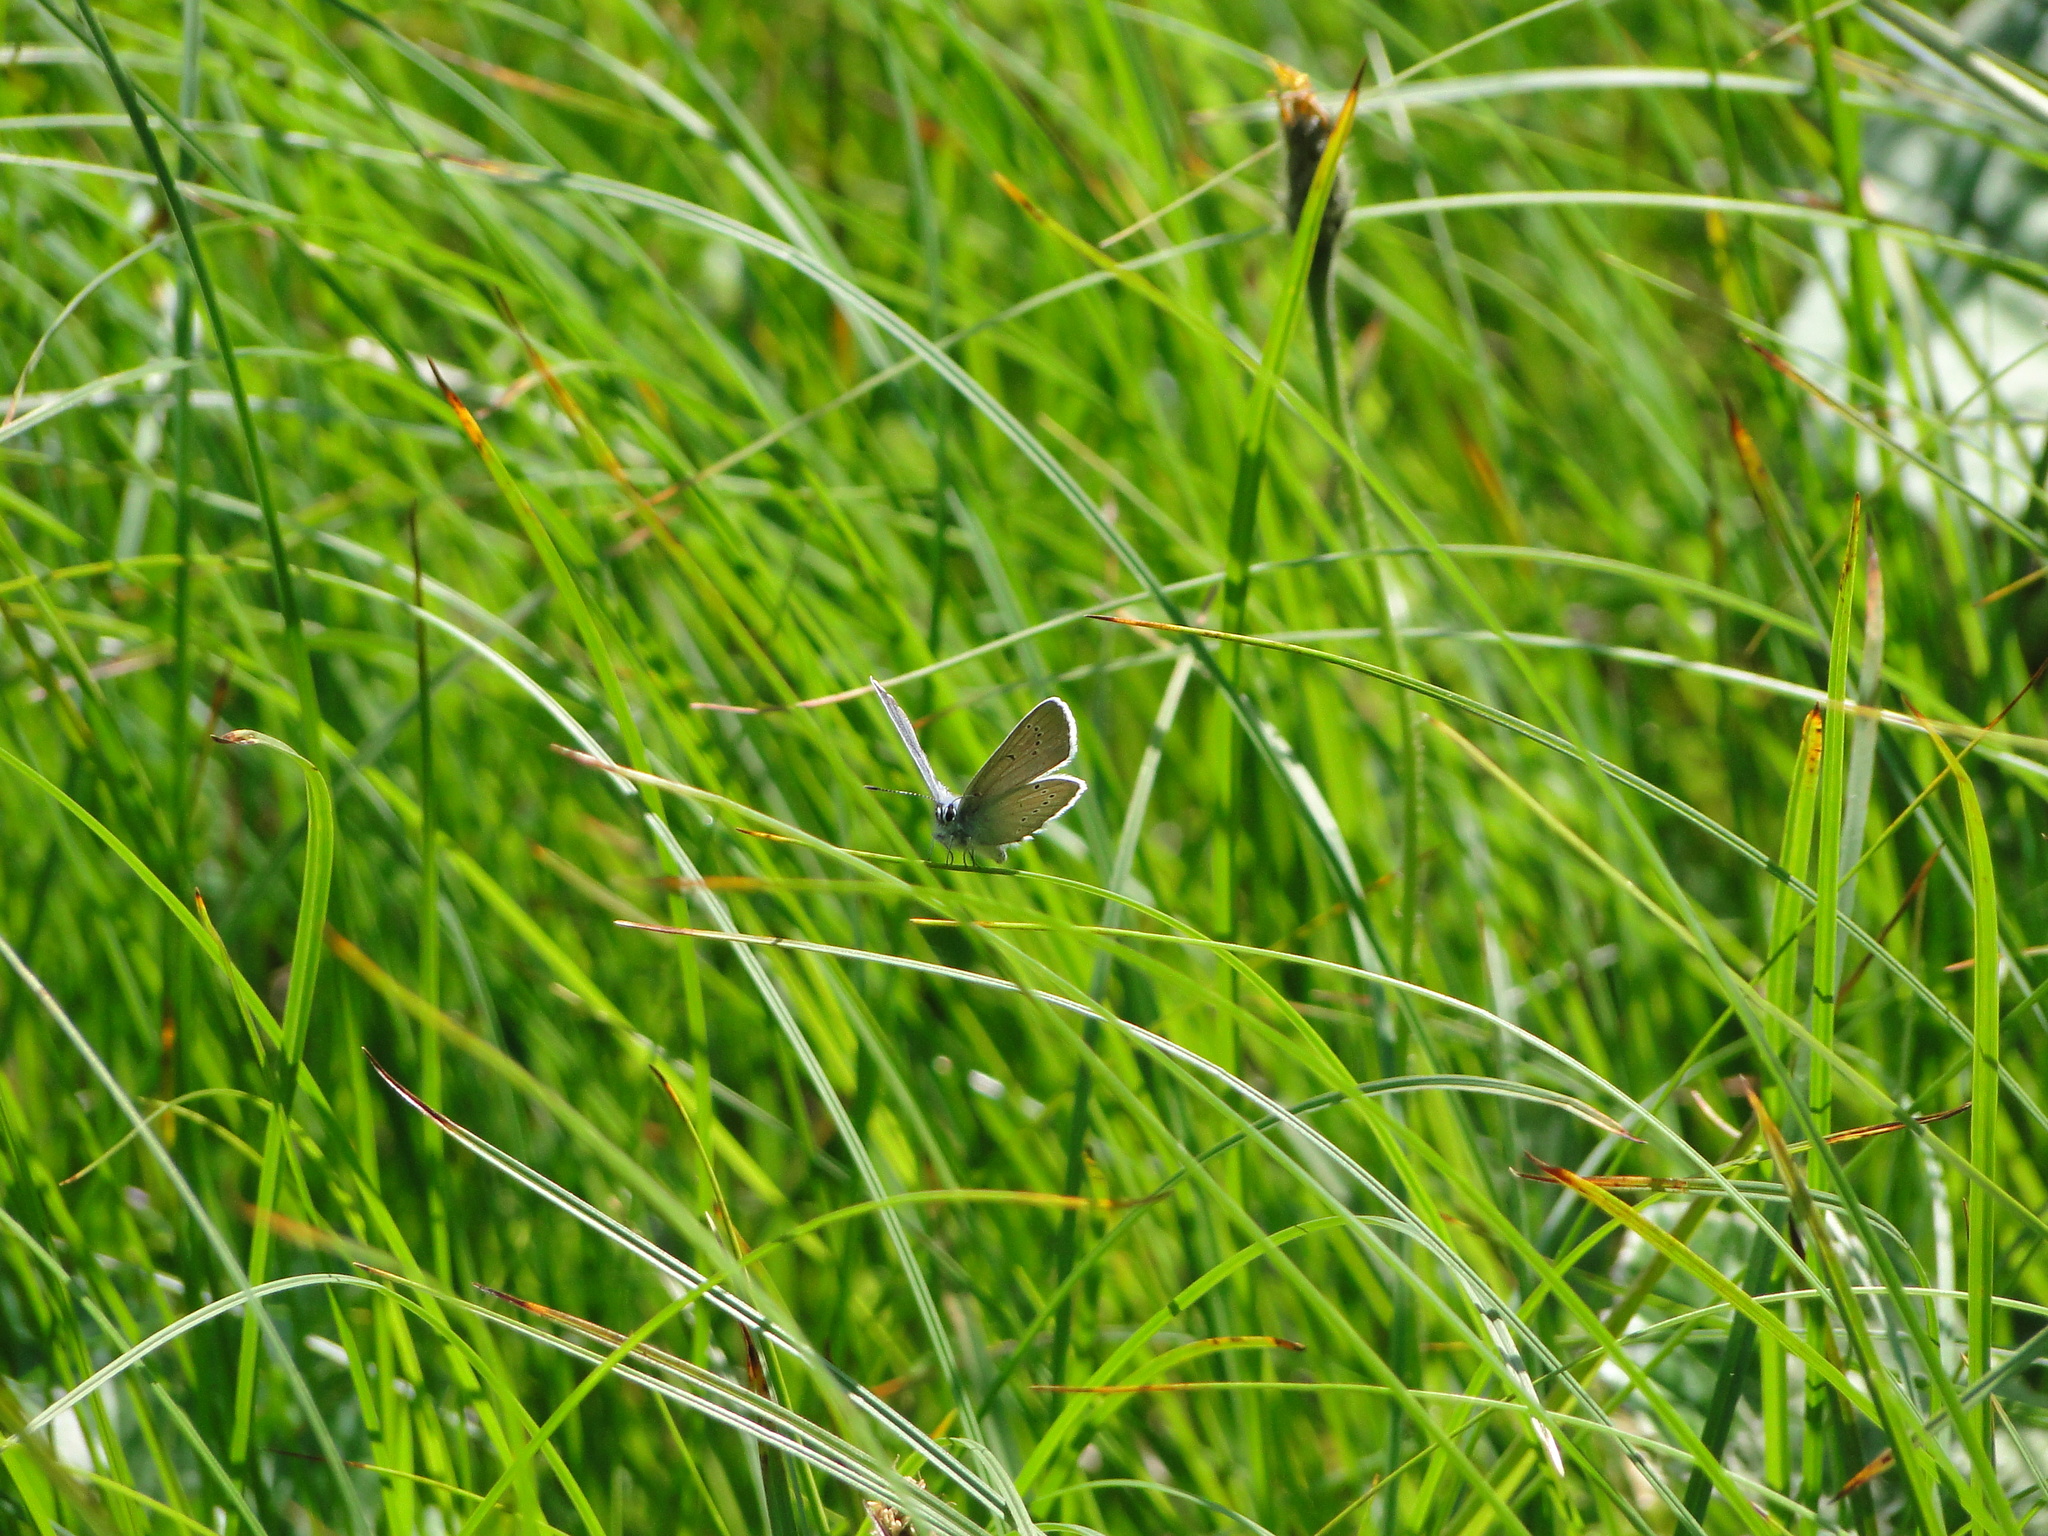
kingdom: Animalia
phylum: Arthropoda
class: Insecta
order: Lepidoptera
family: Lycaenidae
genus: Cyaniris
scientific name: Cyaniris semiargus
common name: Mazarine blue
